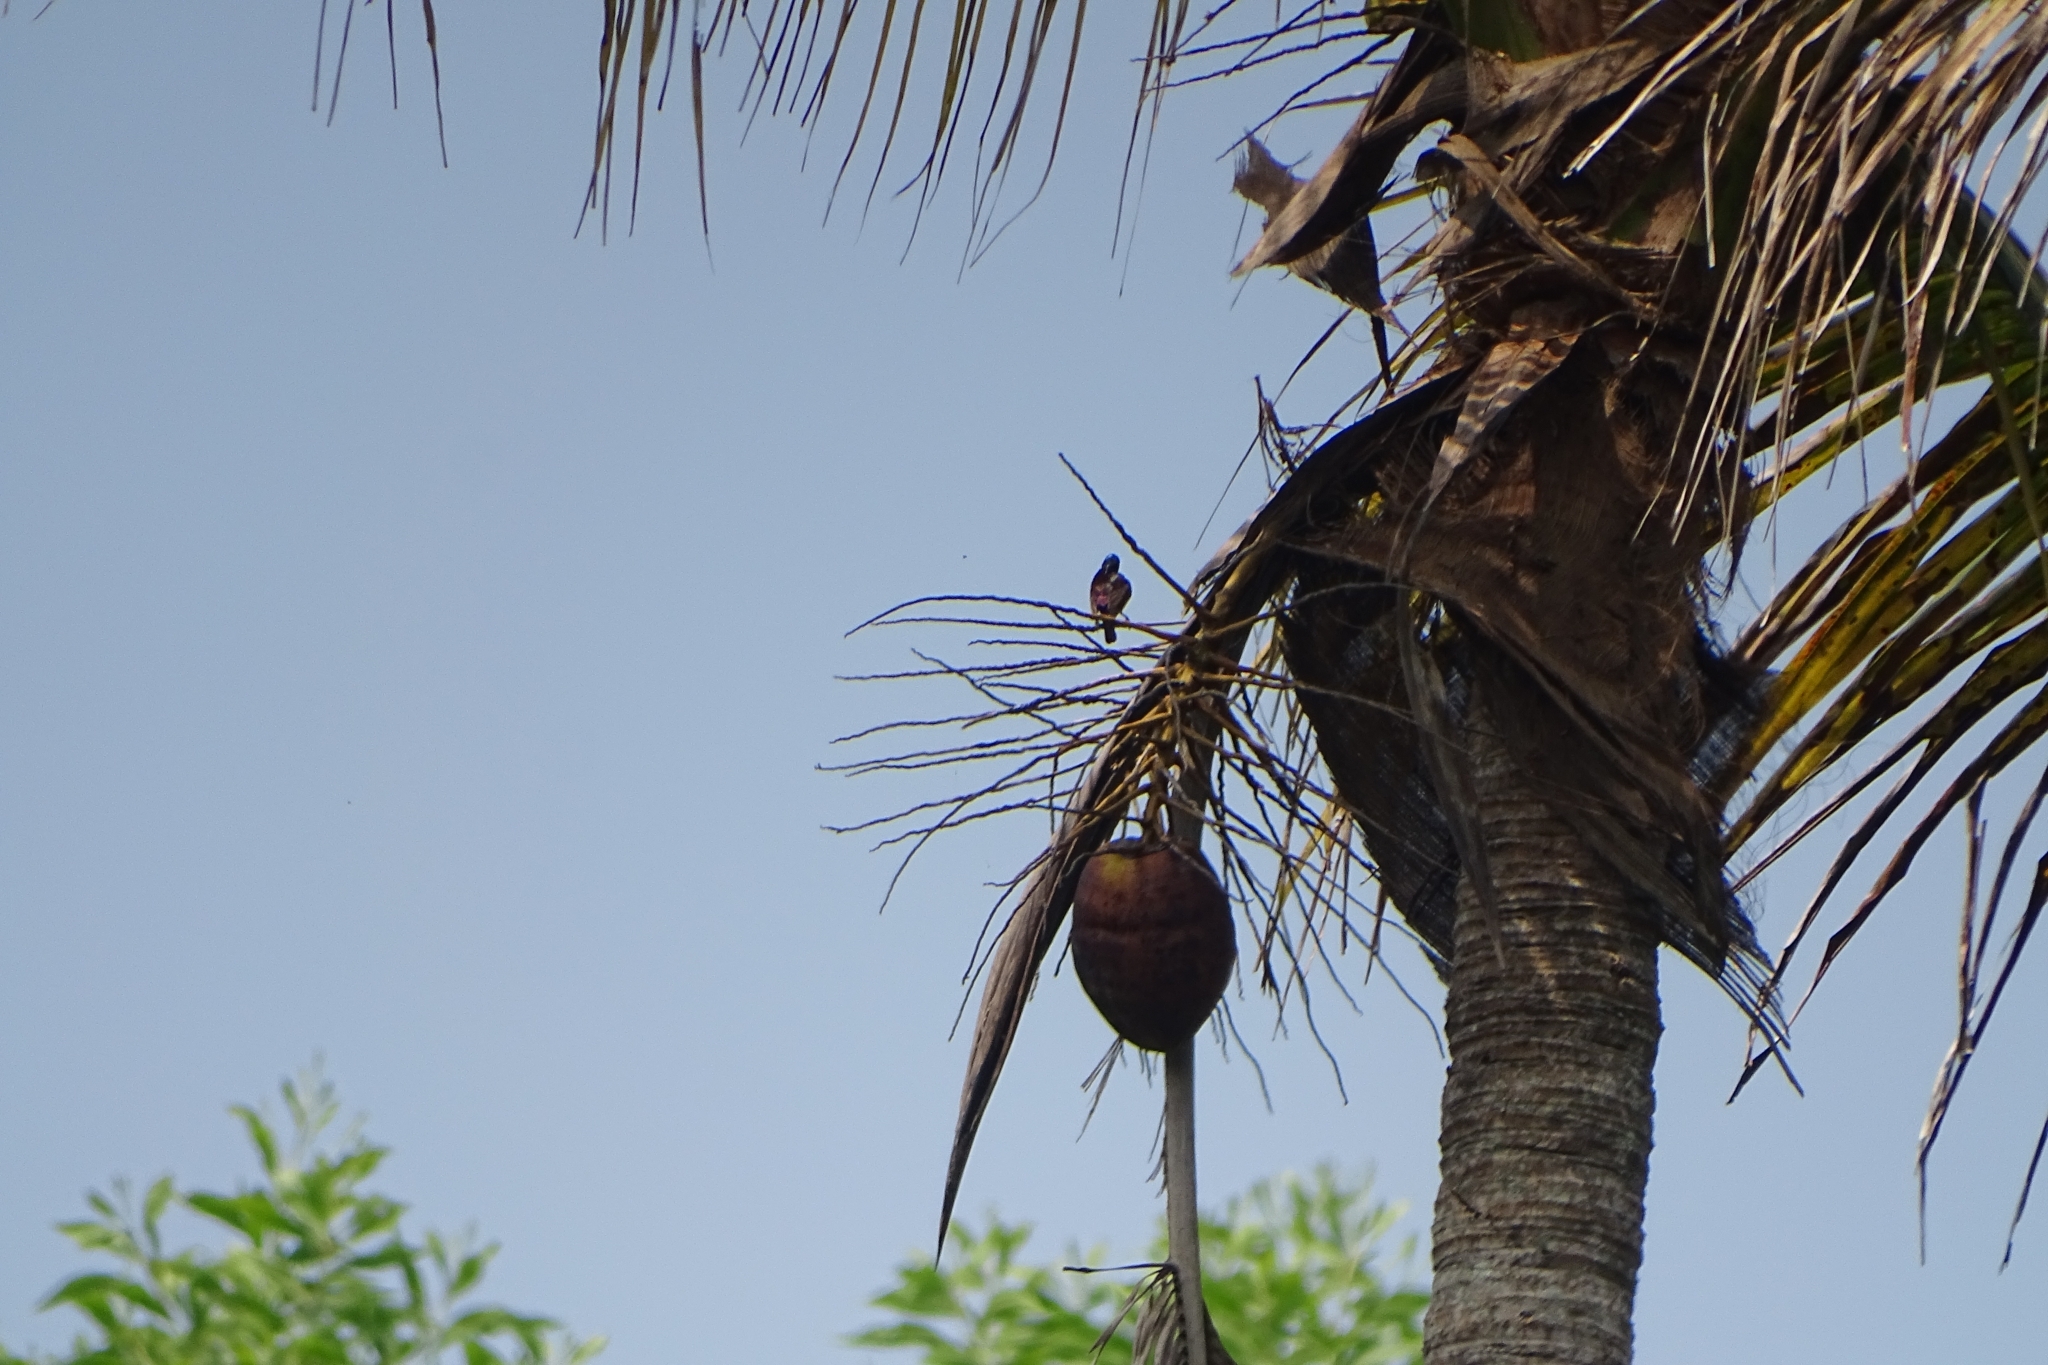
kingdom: Animalia
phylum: Chordata
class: Aves
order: Passeriformes
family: Nectariniidae
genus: Leptocoma
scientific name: Leptocoma zeylonica
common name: Purple-rumped sunbird
